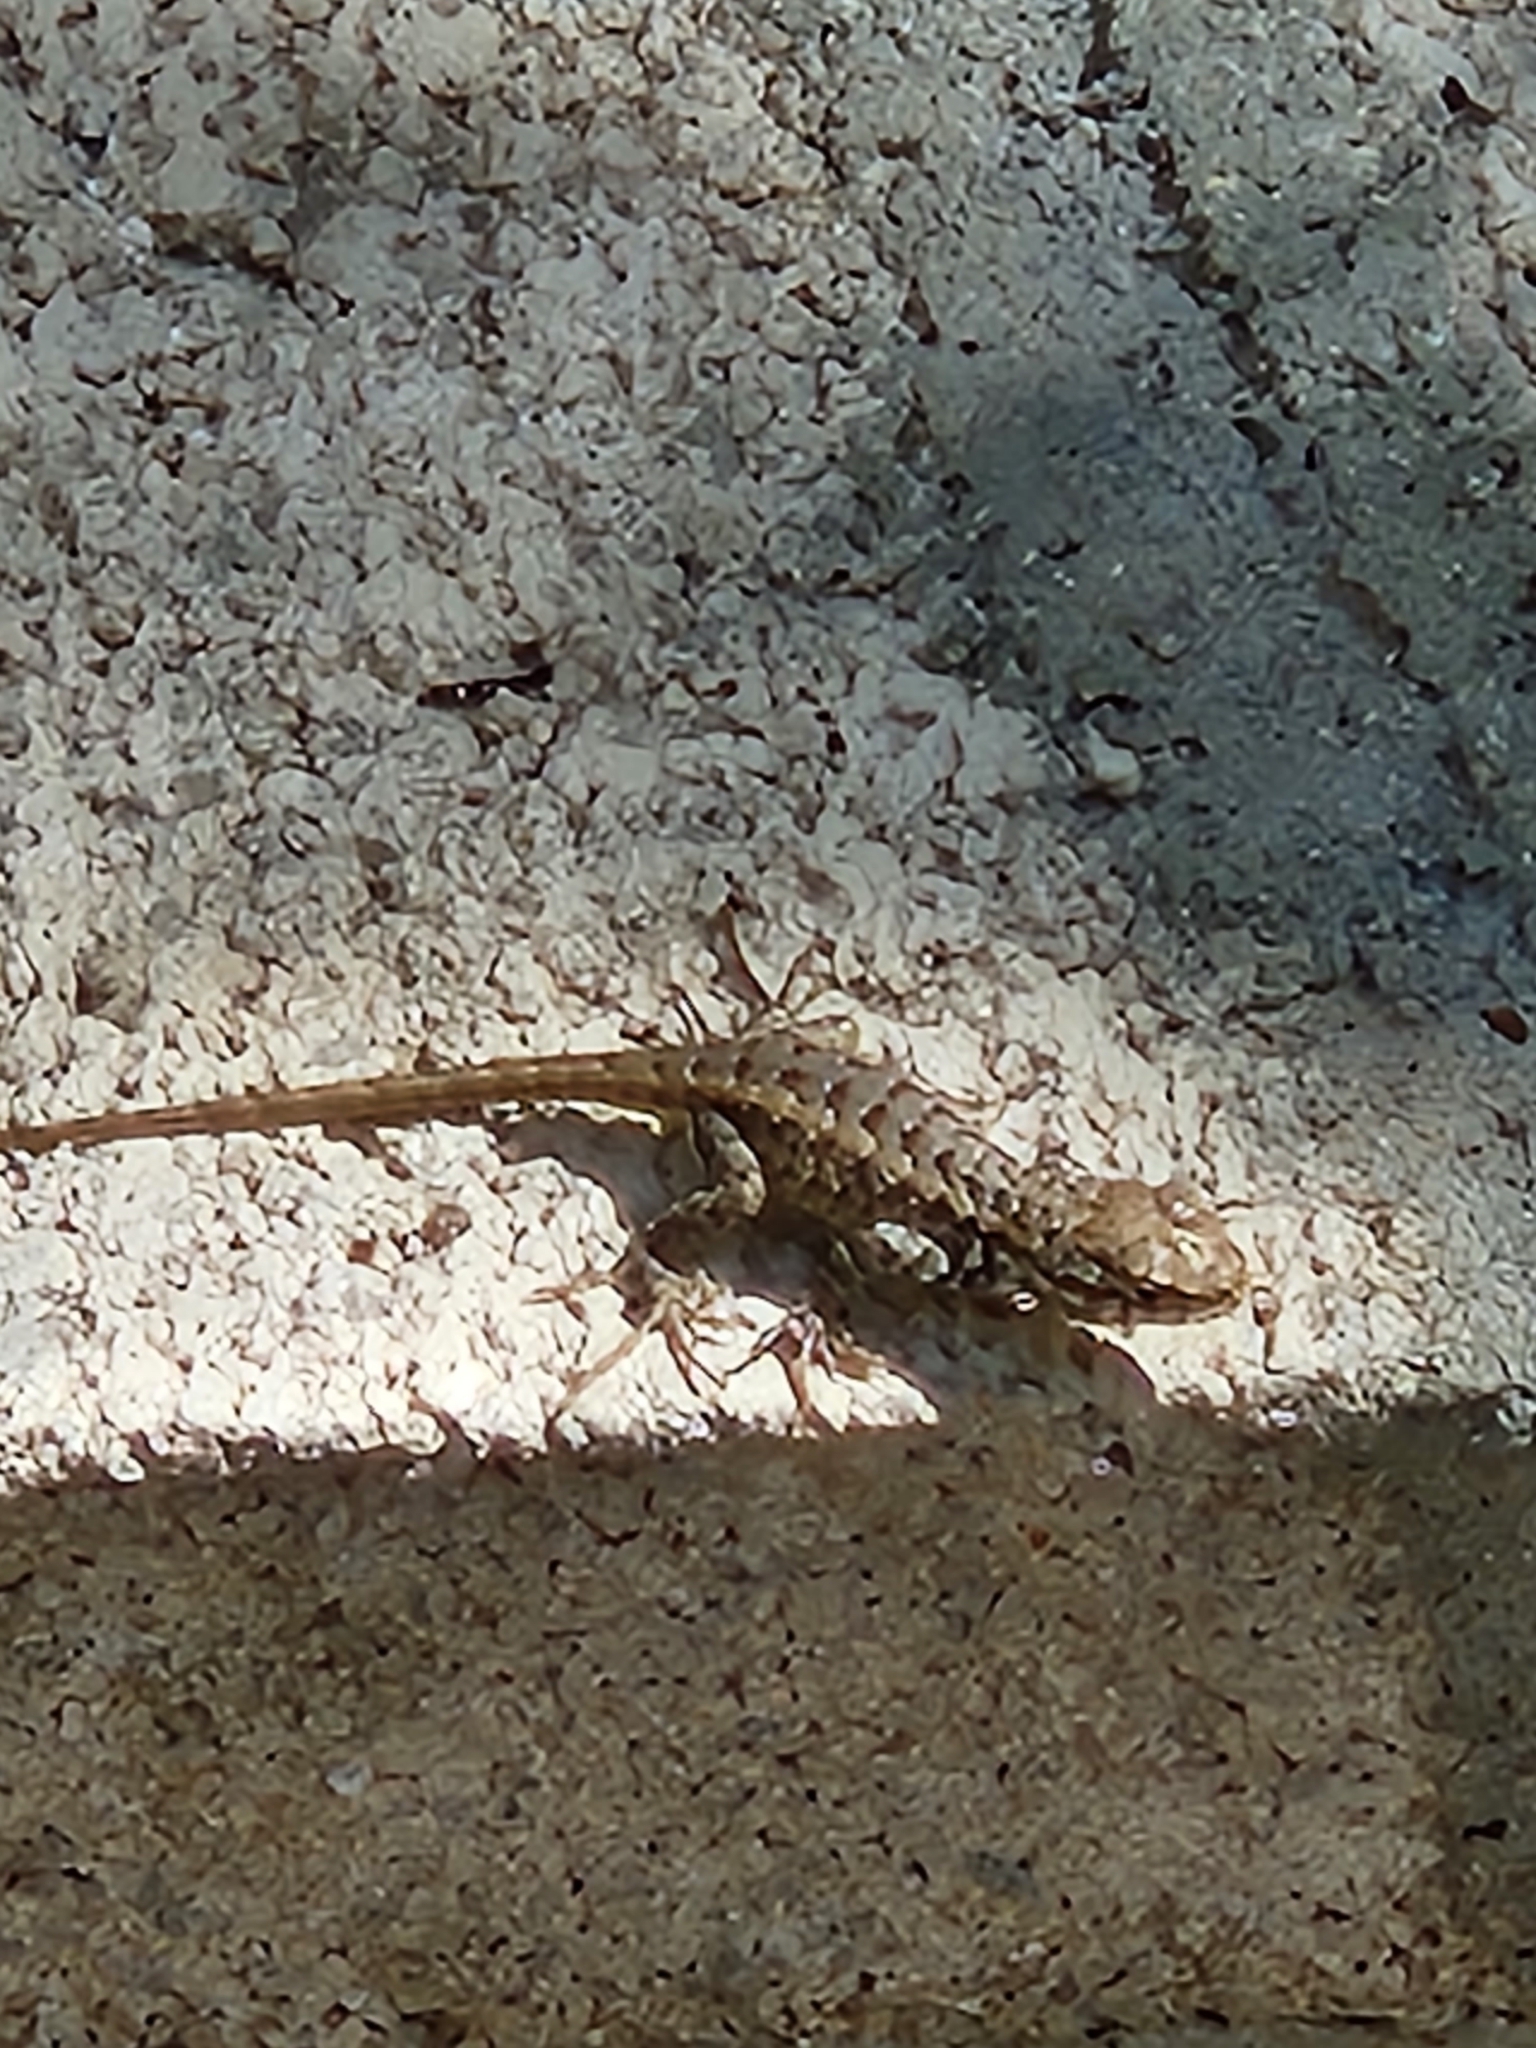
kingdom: Animalia
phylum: Chordata
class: Squamata
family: Phrynosomatidae
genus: Sceloporus
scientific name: Sceloporus graciosus
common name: Sagebrush lizard
